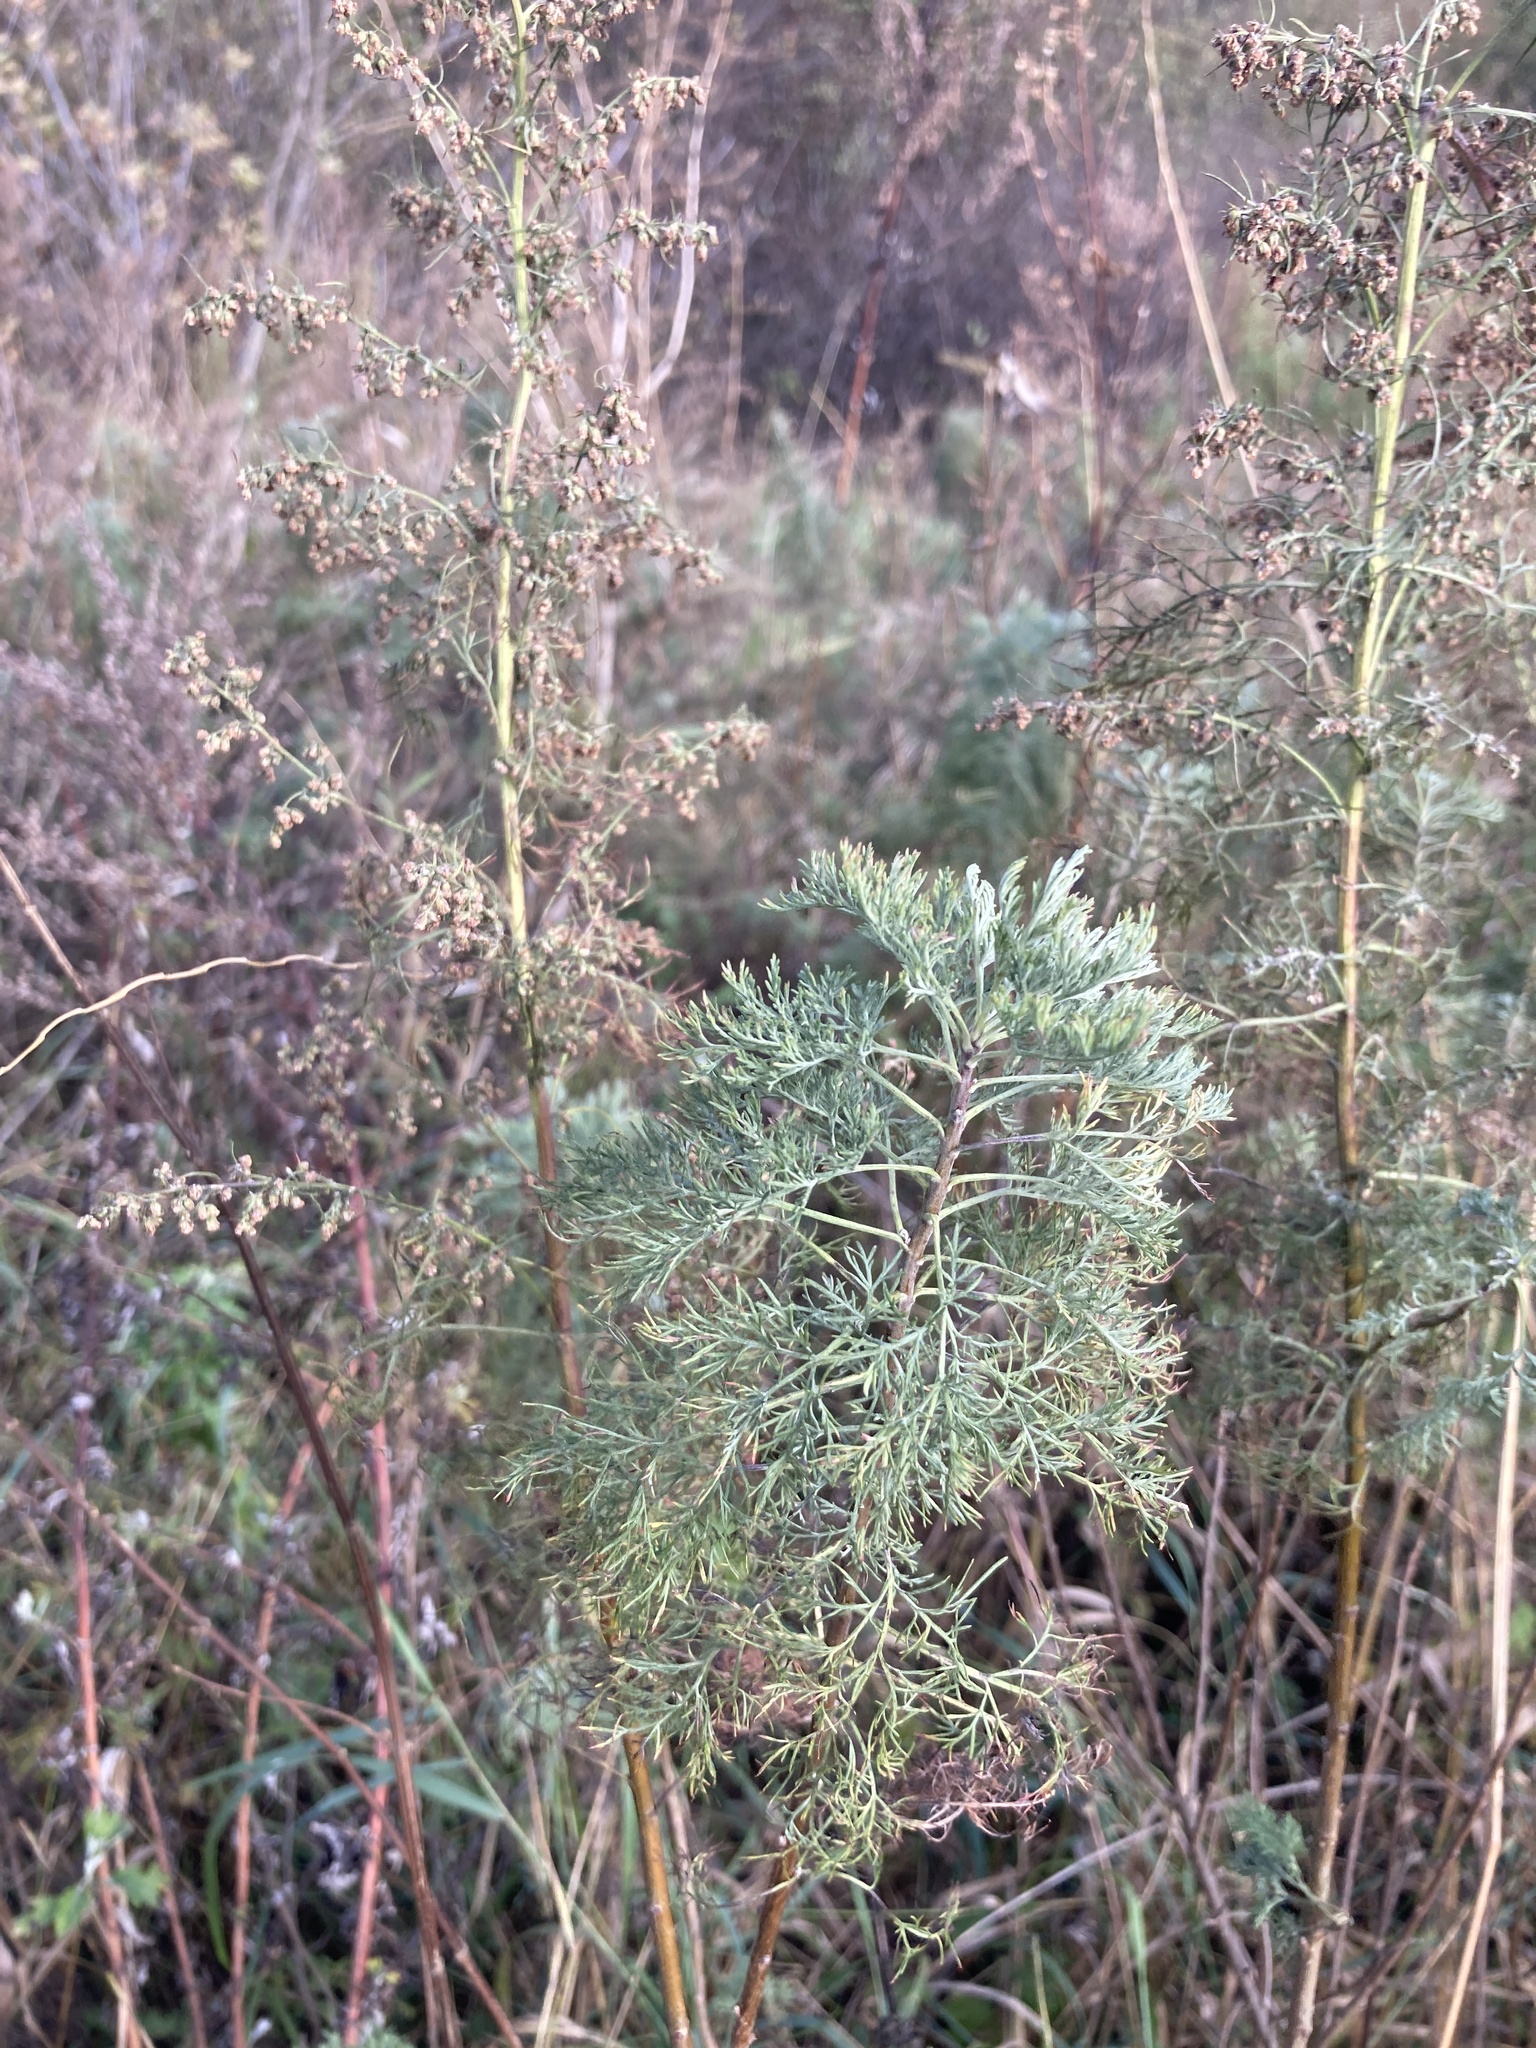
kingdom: Plantae
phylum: Tracheophyta
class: Magnoliopsida
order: Asterales
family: Asteraceae
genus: Artemisia
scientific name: Artemisia abrotanum
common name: Southernwood
